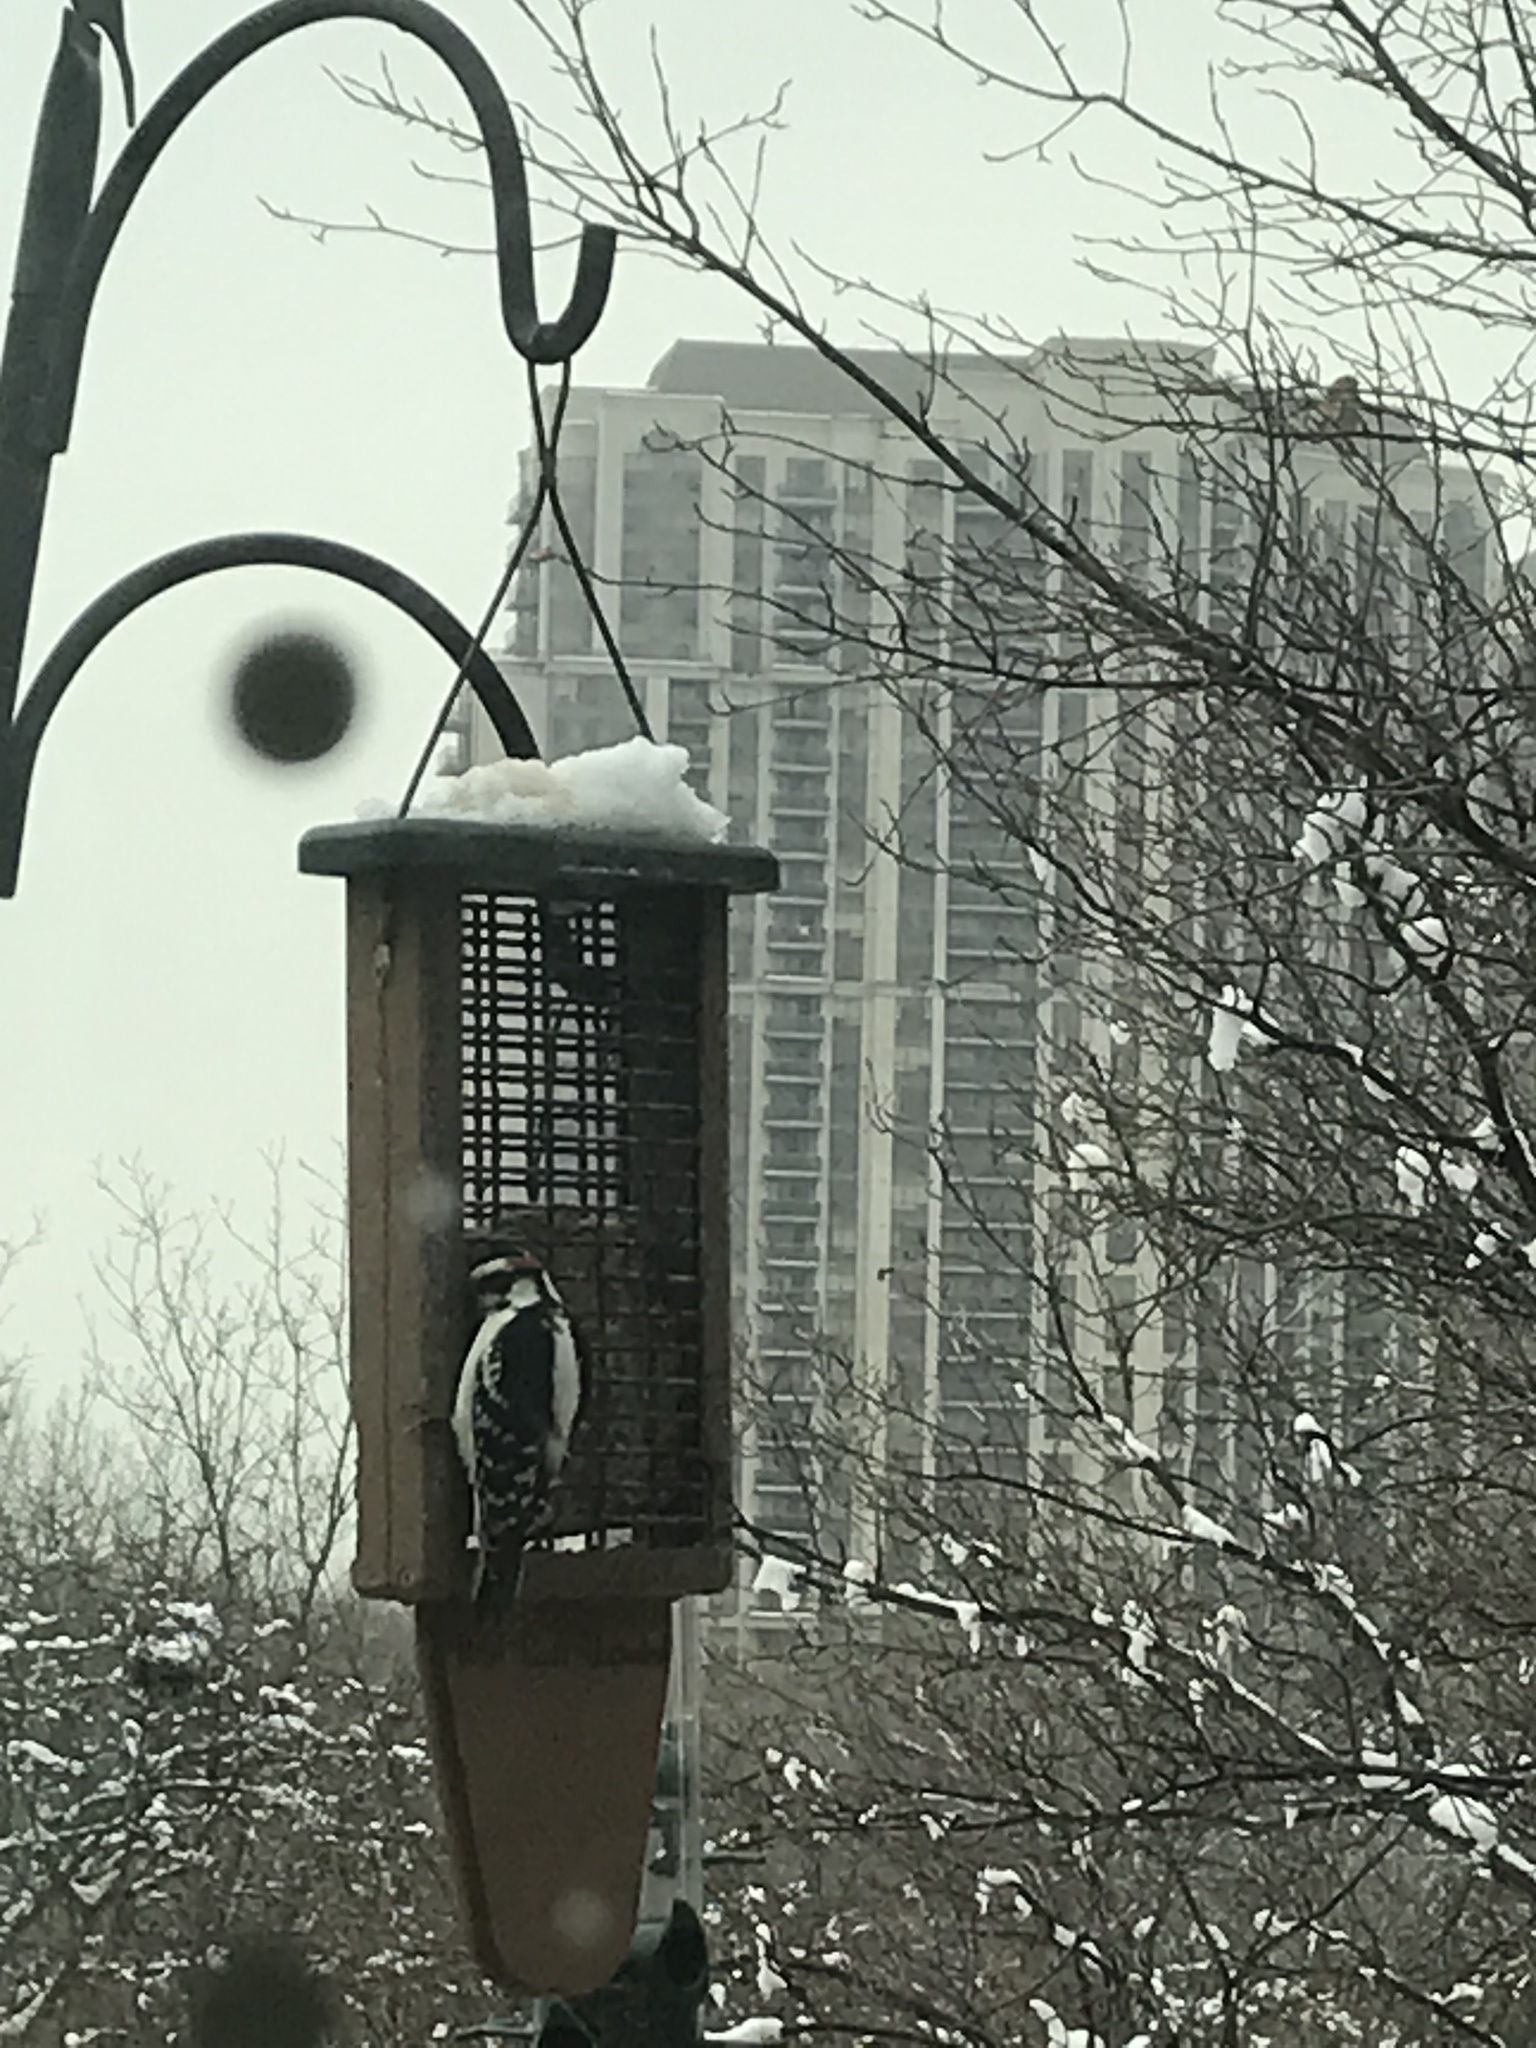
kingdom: Animalia
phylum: Chordata
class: Aves
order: Piciformes
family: Picidae
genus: Dryobates
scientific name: Dryobates pubescens
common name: Downy woodpecker
